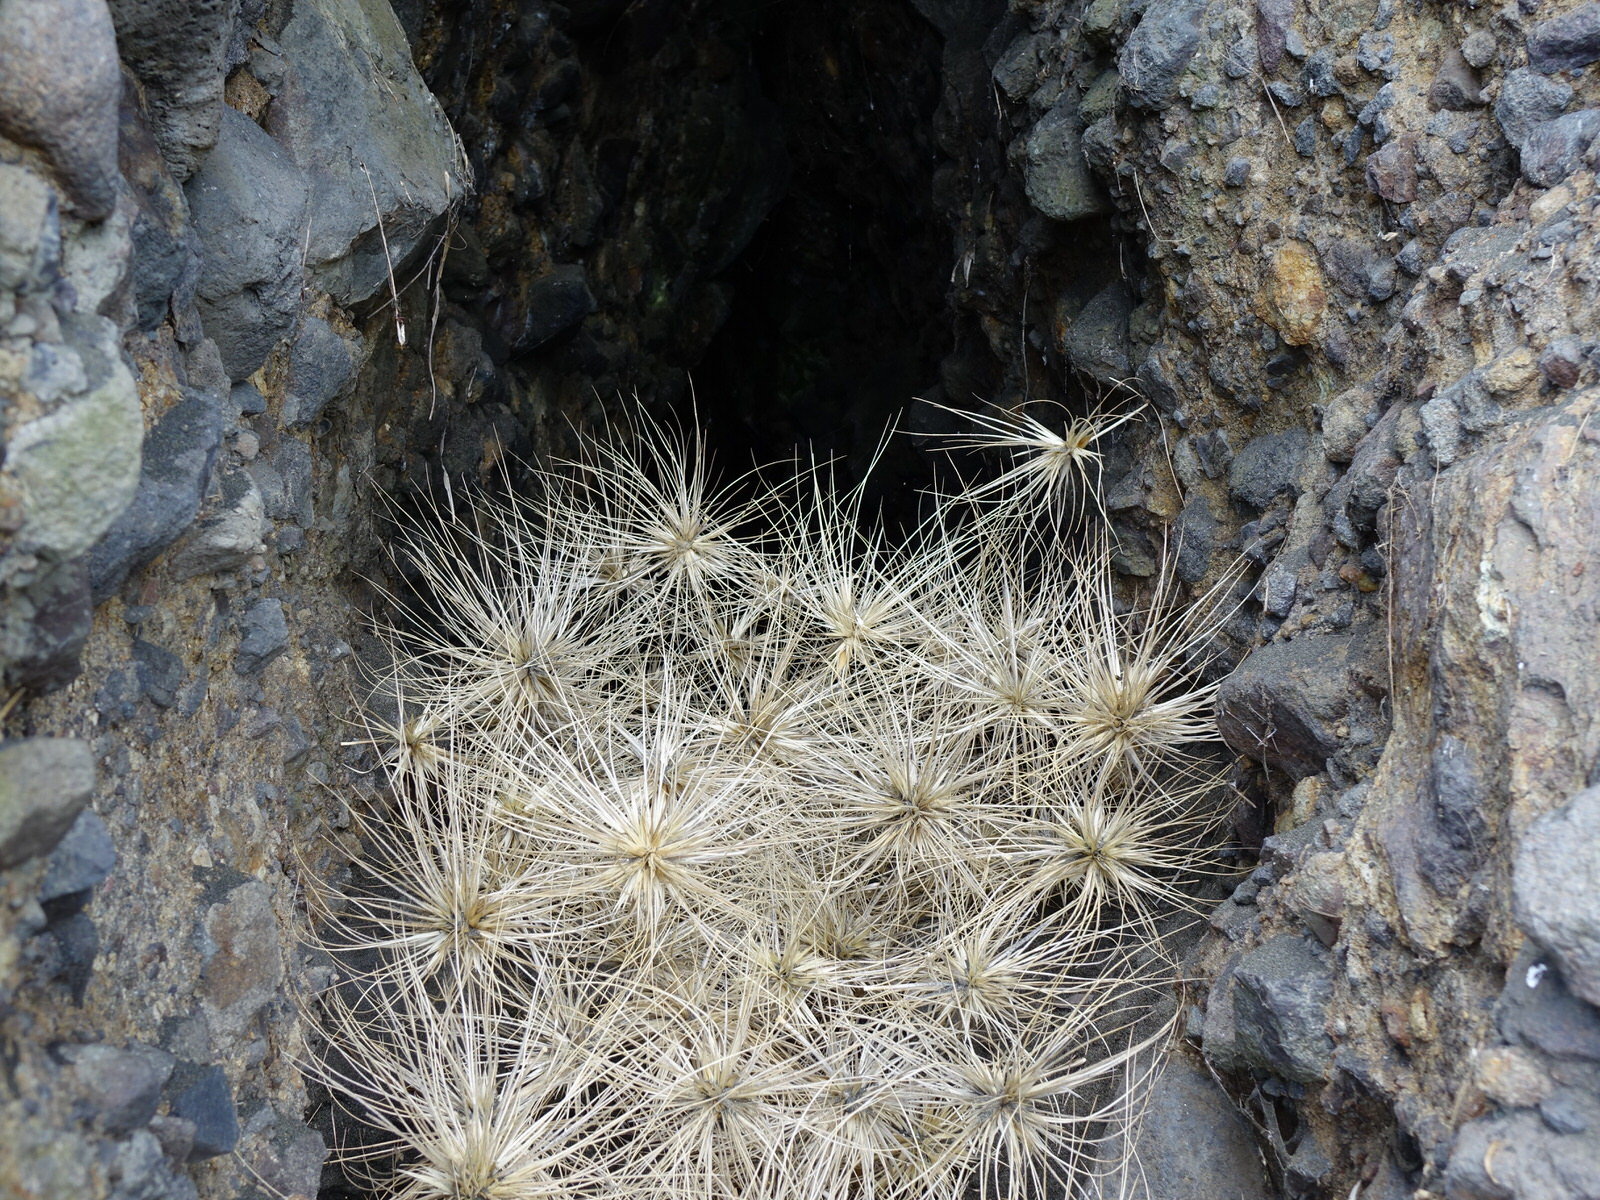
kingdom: Plantae
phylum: Tracheophyta
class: Liliopsida
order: Poales
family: Poaceae
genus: Spinifex
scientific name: Spinifex sericeus
